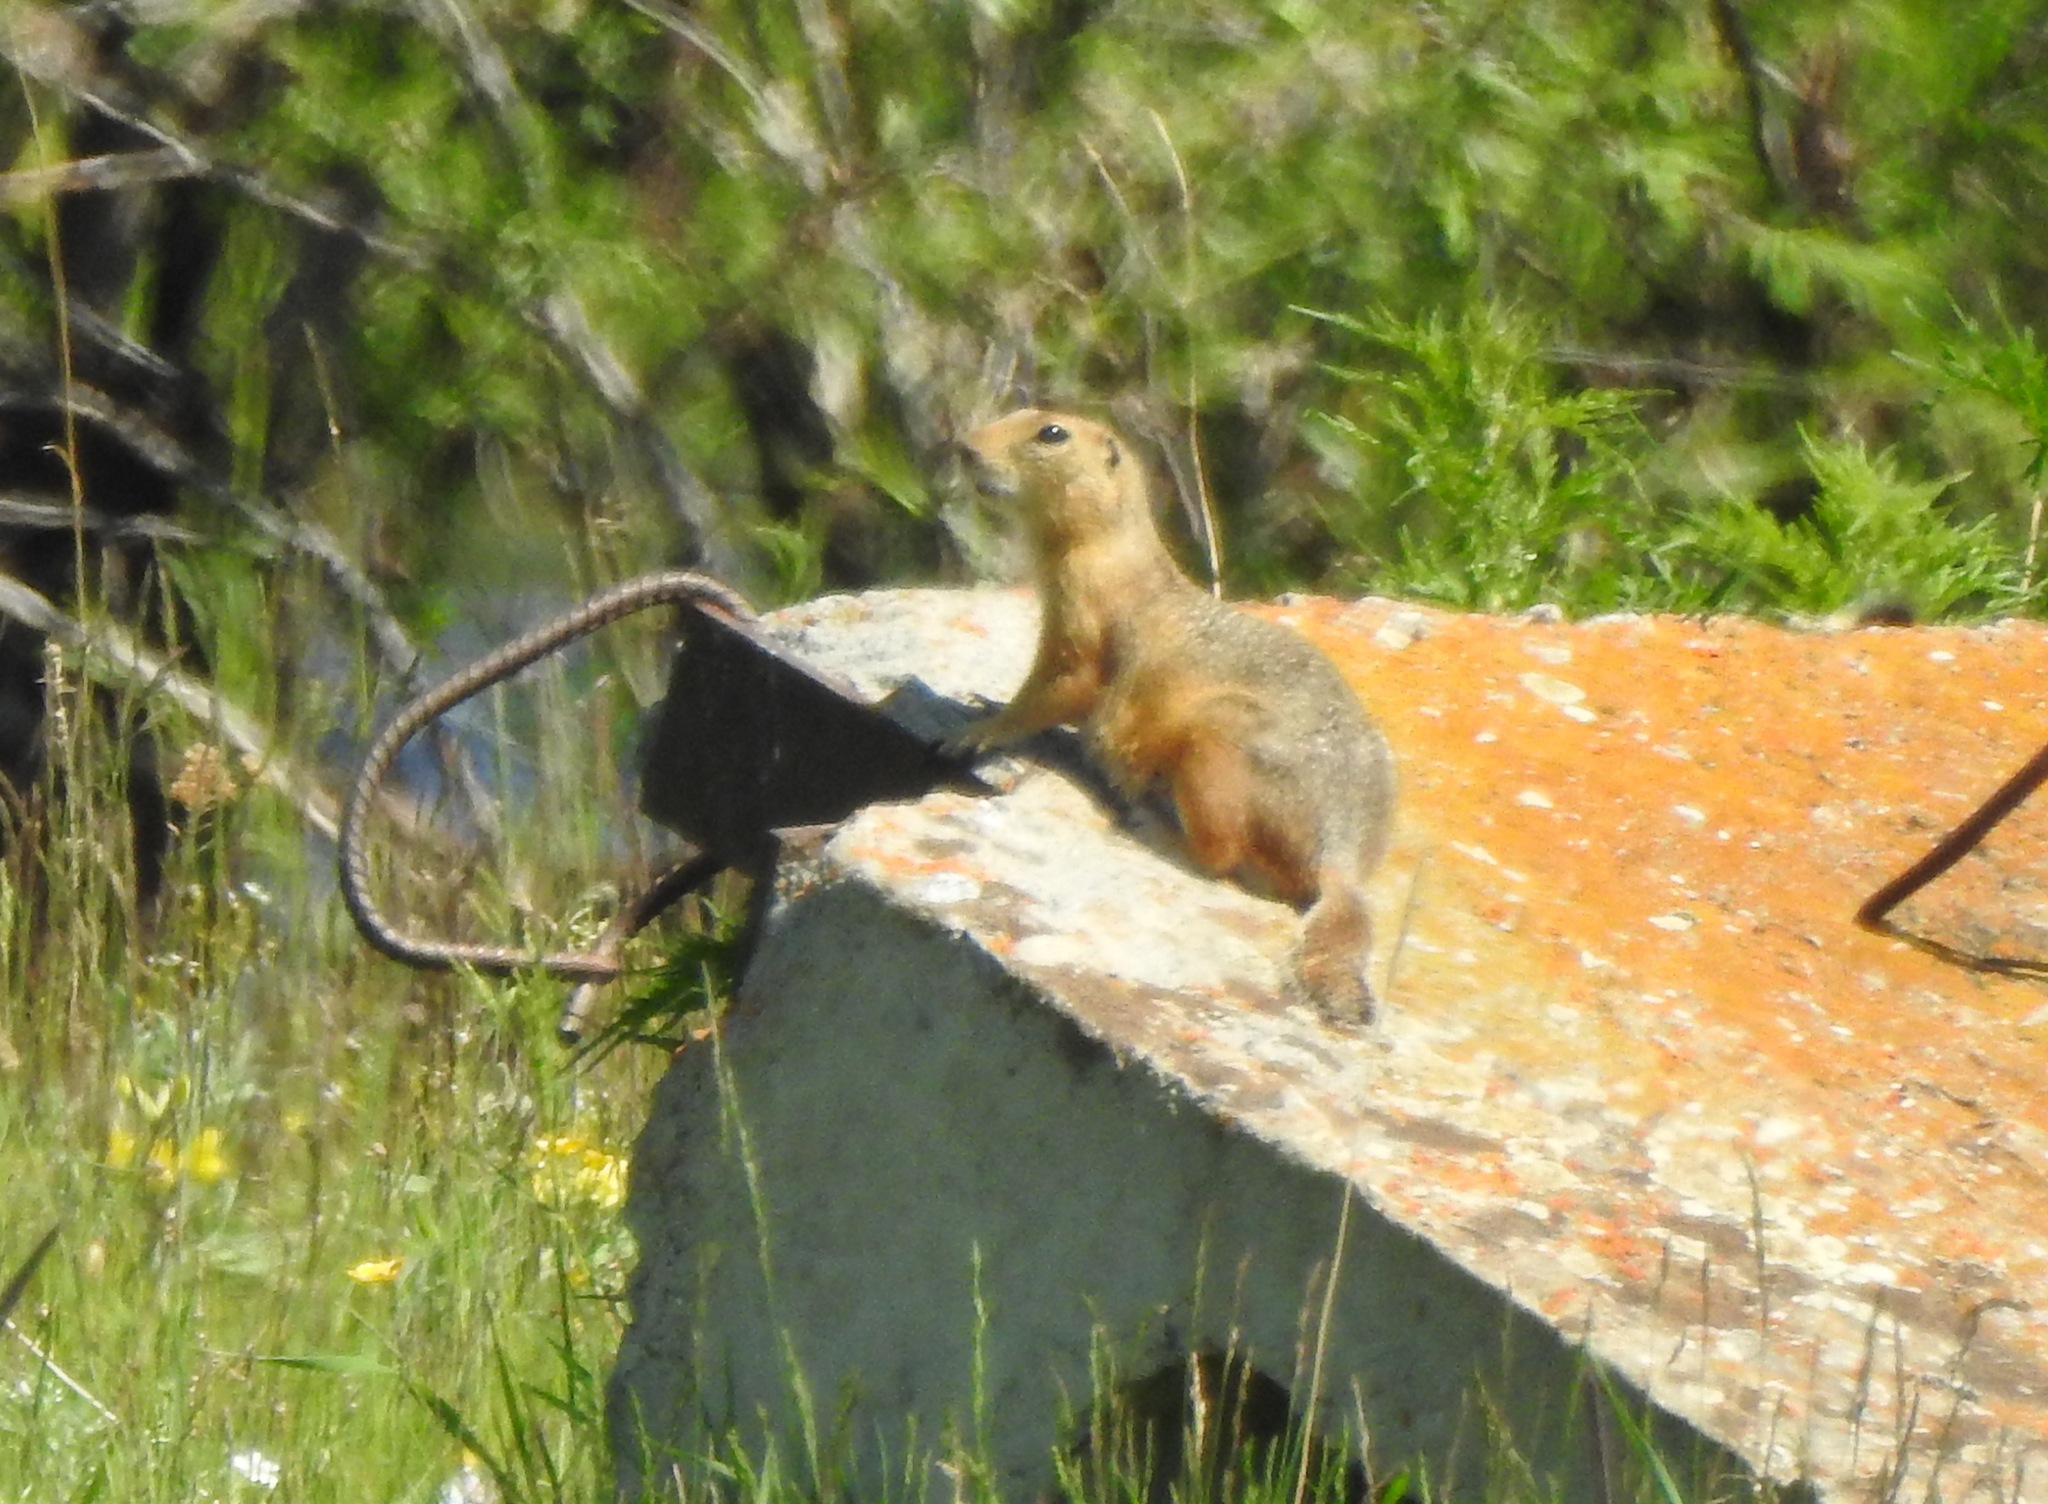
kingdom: Animalia
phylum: Chordata
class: Mammalia
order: Rodentia
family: Sciuridae
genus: Urocitellus
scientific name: Urocitellus undulatus
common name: Long-tailed ground squirrel
